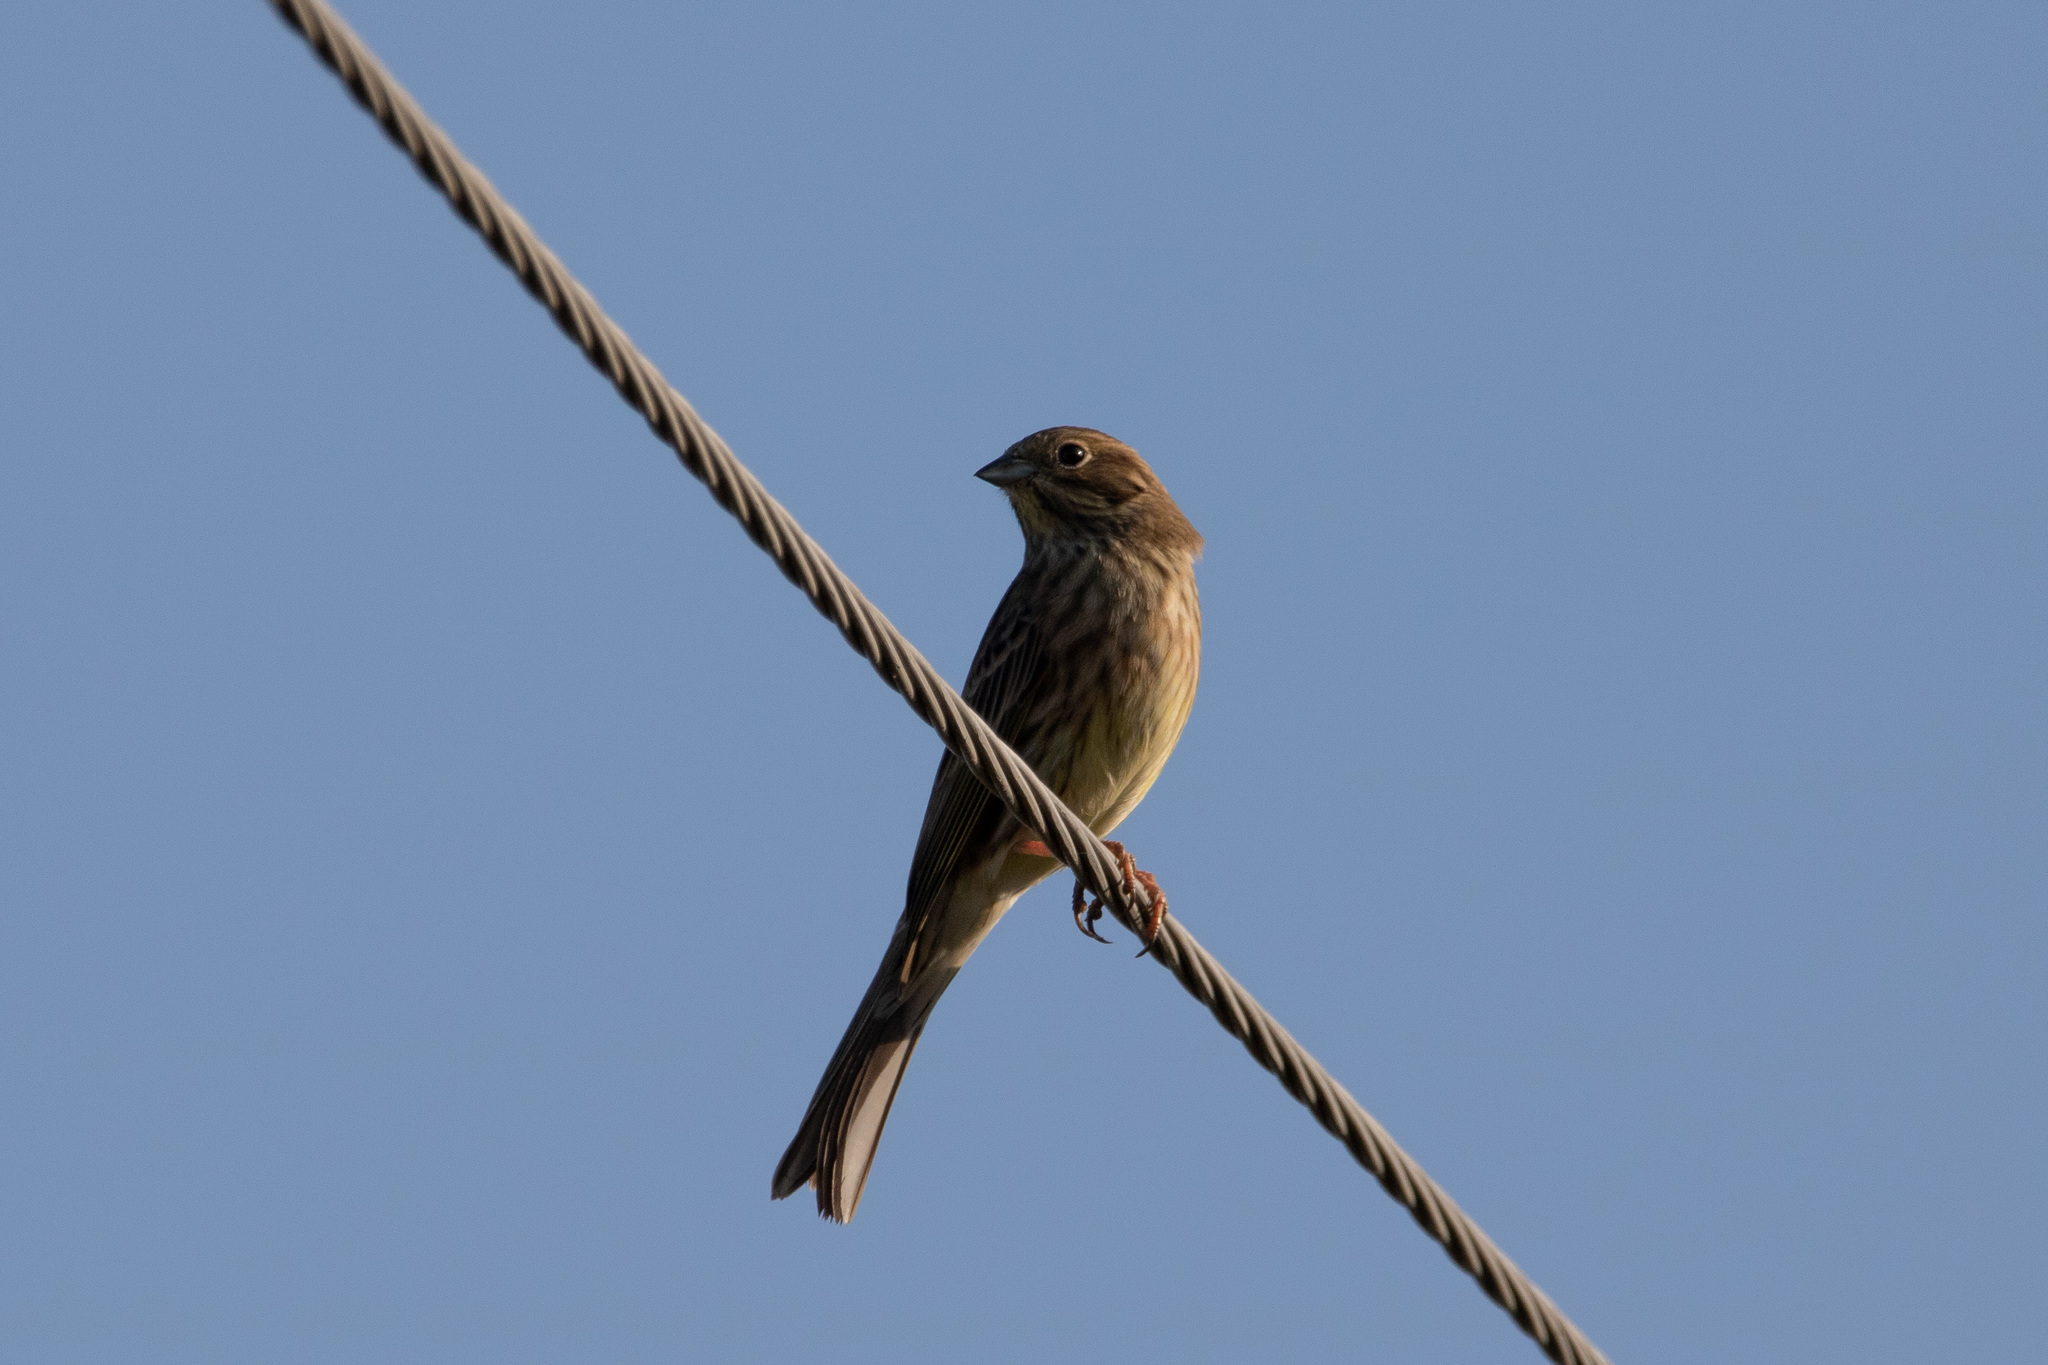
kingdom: Animalia
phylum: Chordata
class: Aves
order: Passeriformes
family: Emberizidae
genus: Emberiza
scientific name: Emberiza hortulana
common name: Ortolan bunting
